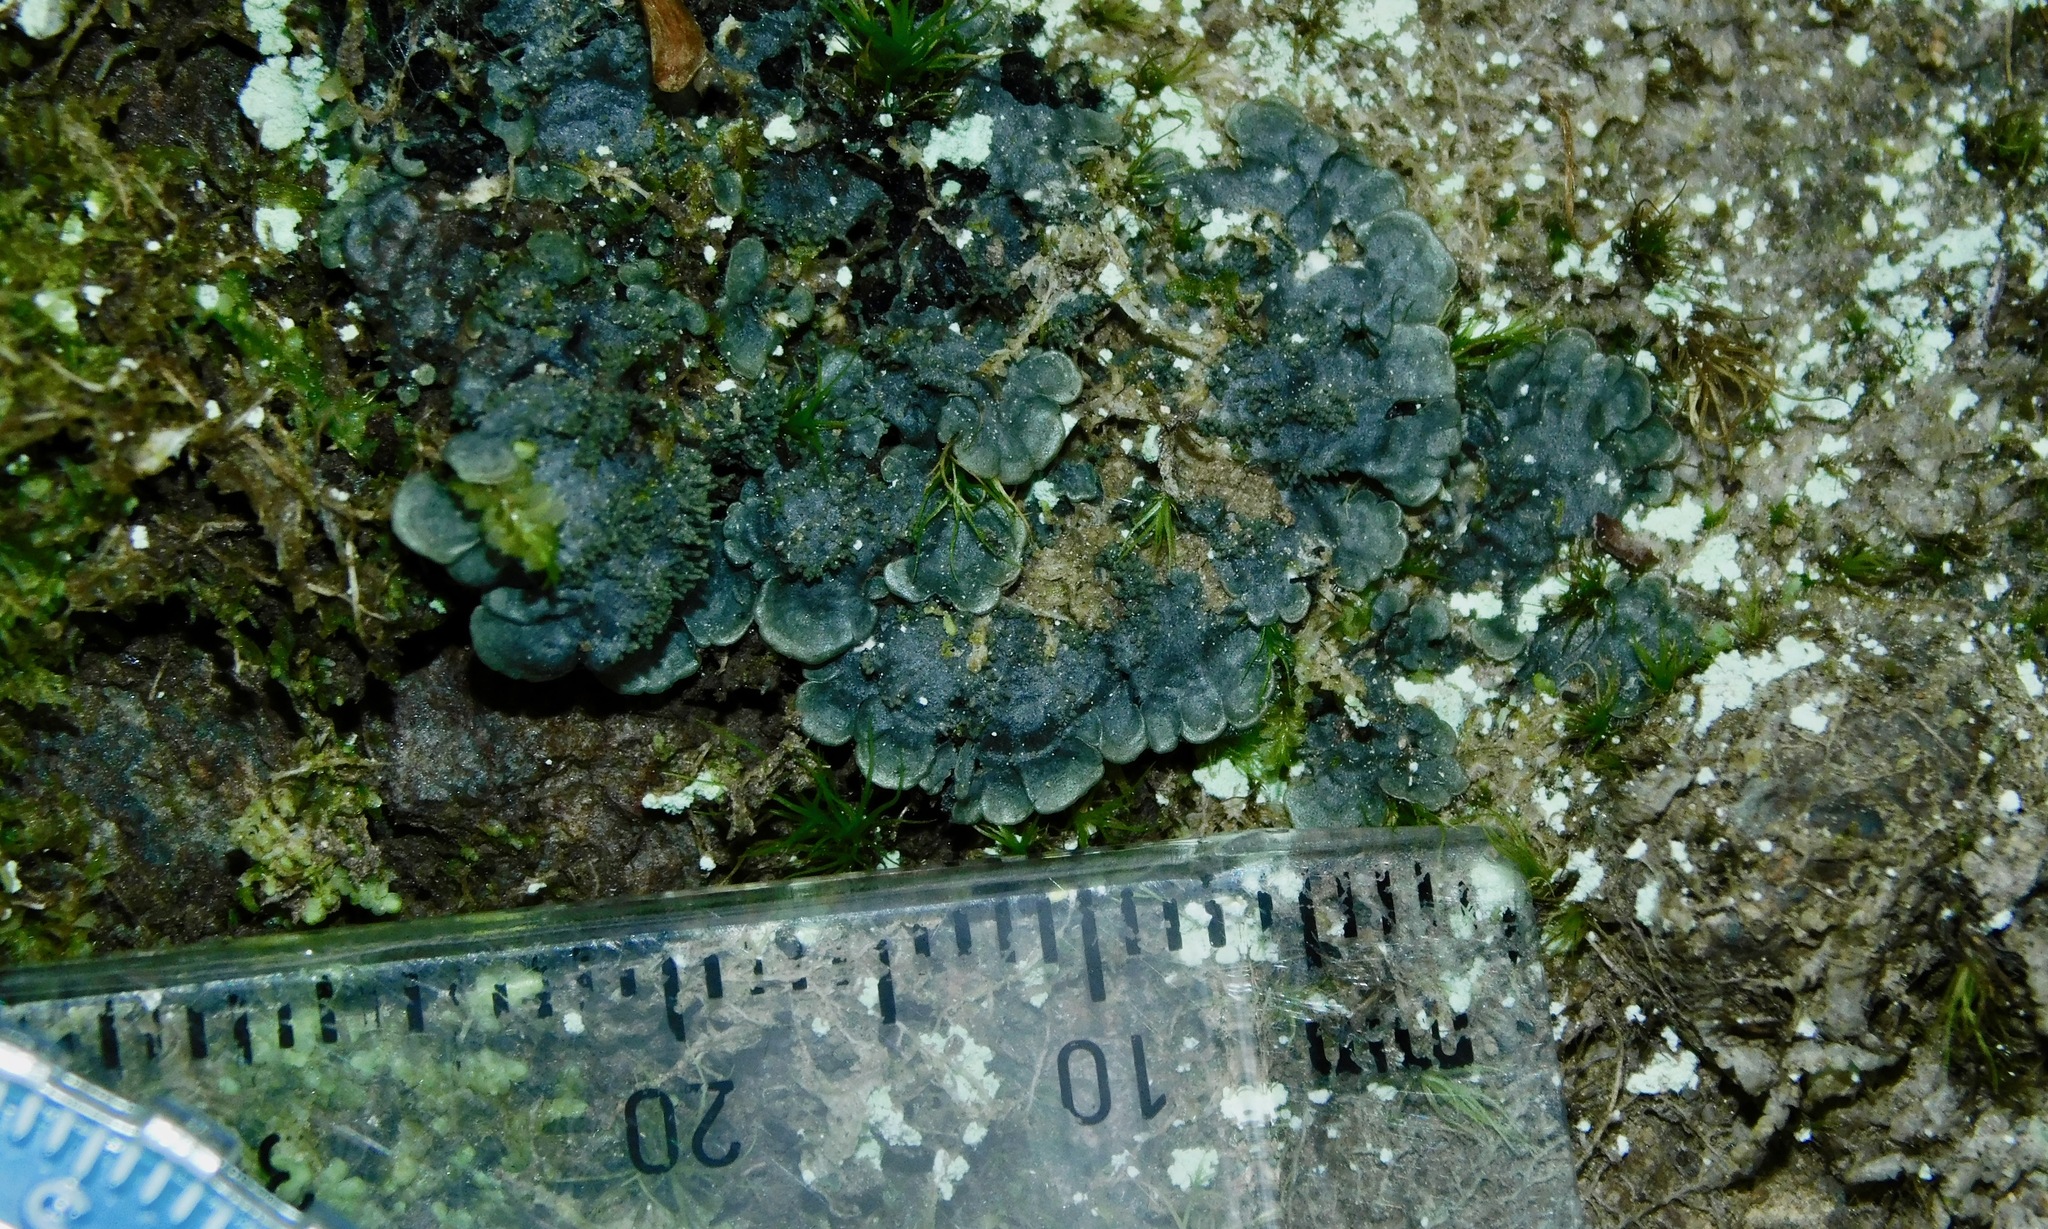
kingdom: Fungi
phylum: Ascomycota
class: Lecanoromycetes
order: Peltigerales
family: Coccocarpiaceae
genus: Coccocarpia
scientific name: Coccocarpia palmicola
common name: Salted shell lichen
